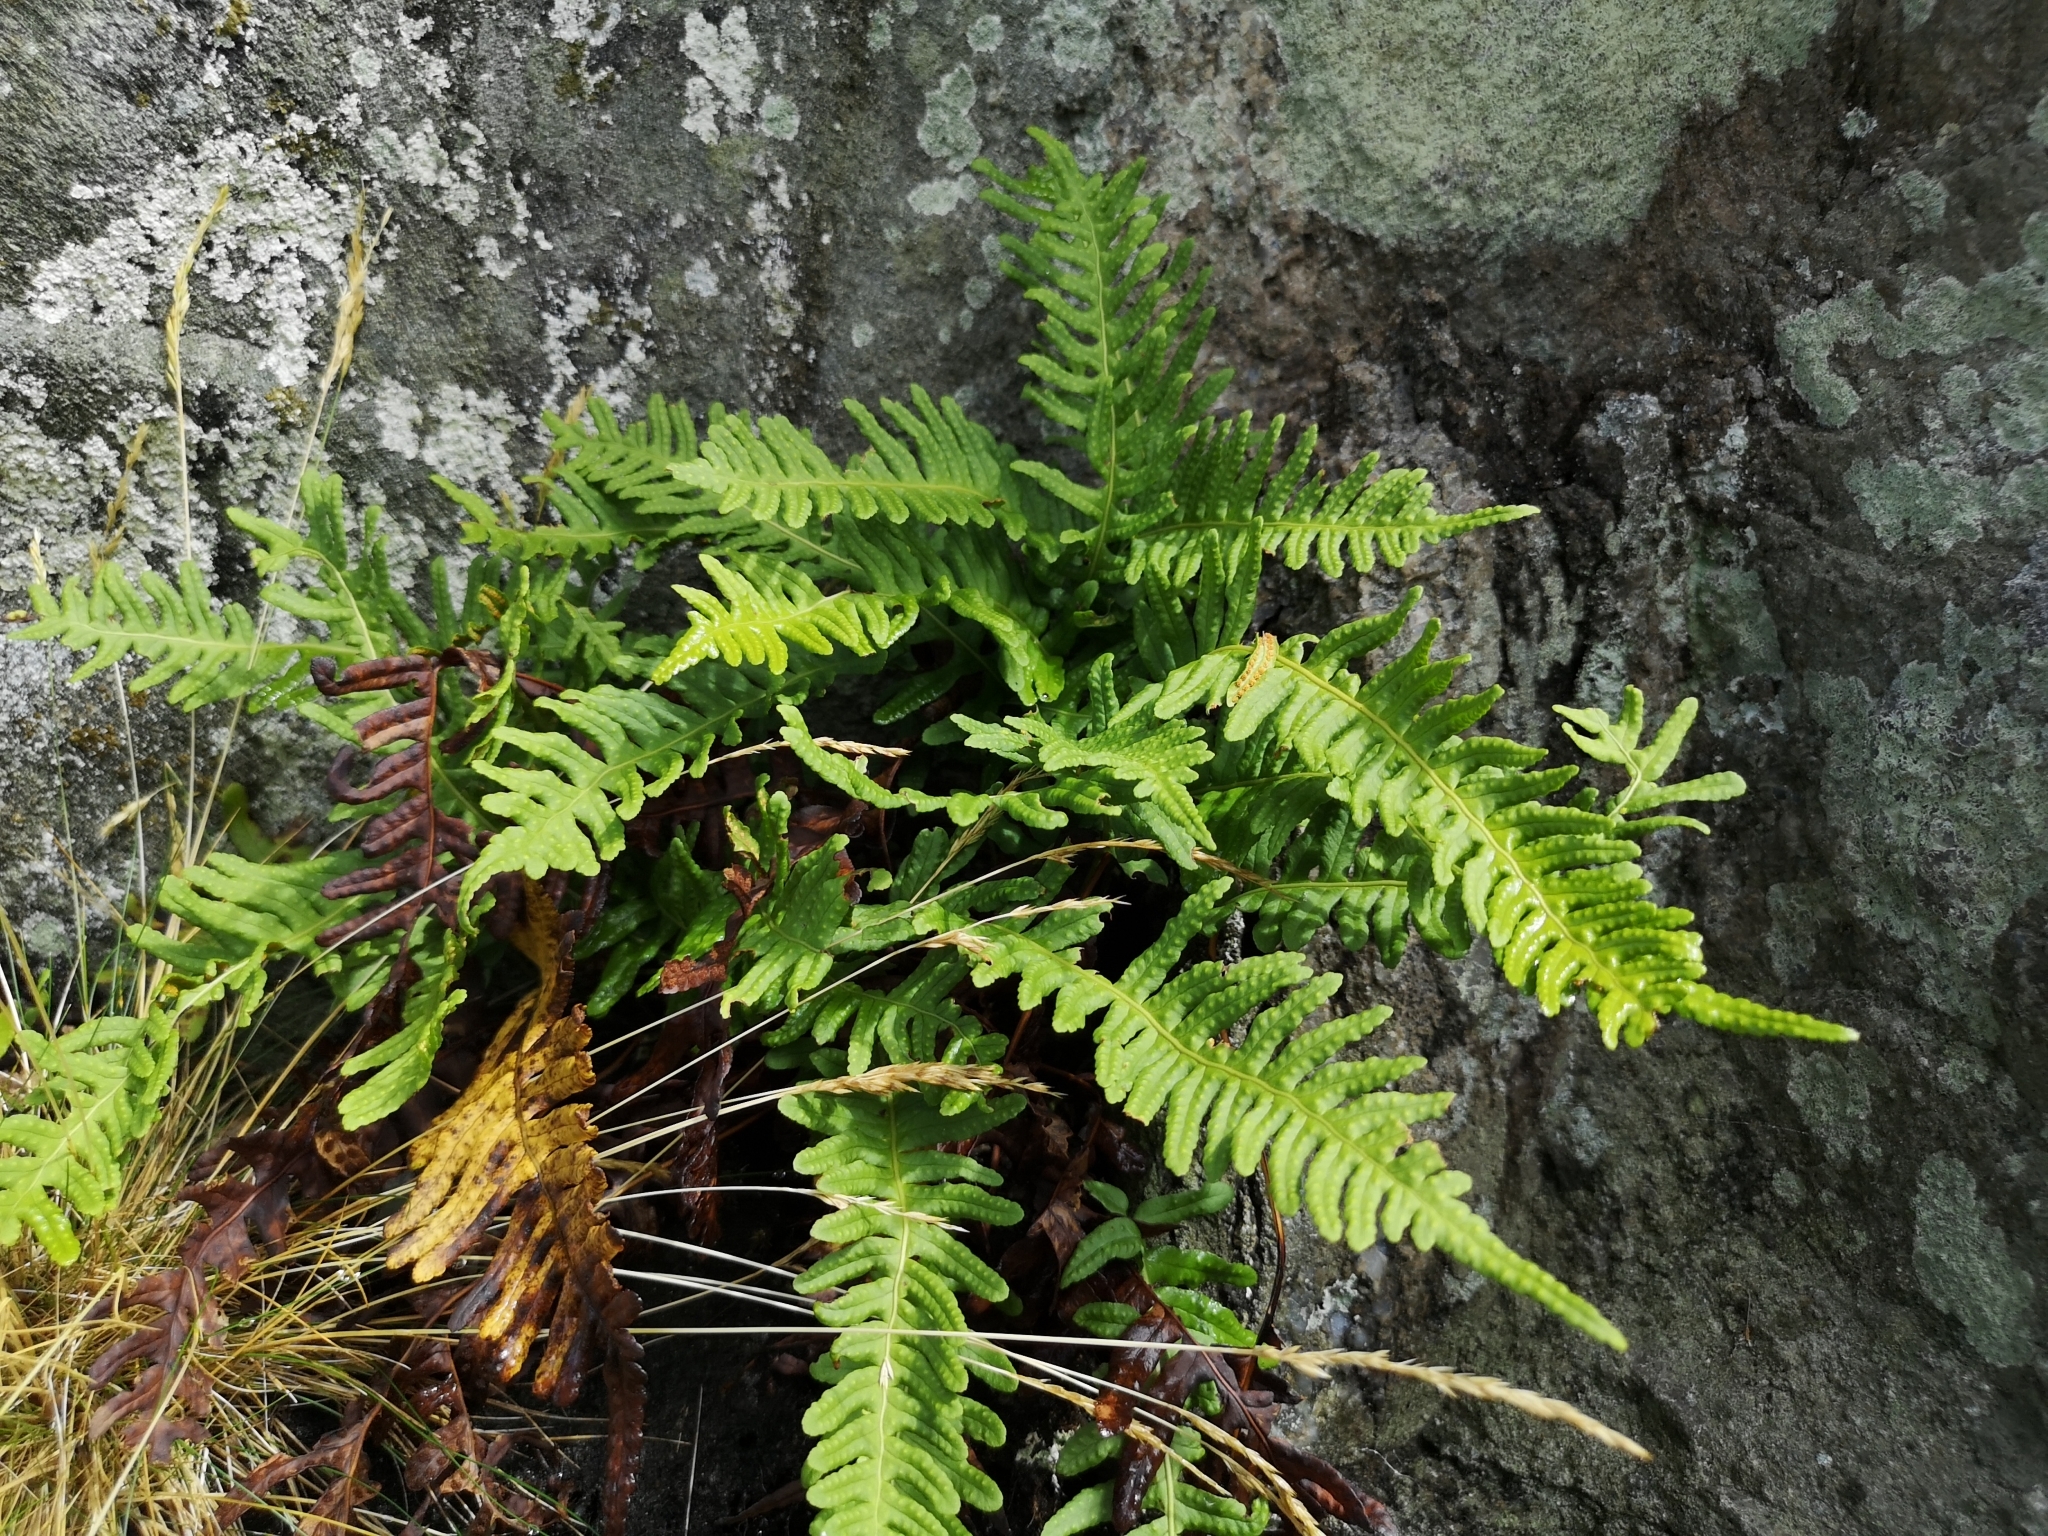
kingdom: Plantae
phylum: Tracheophyta
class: Polypodiopsida
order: Polypodiales
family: Polypodiaceae
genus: Polypodium
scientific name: Polypodium vulgare
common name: Common polypody
